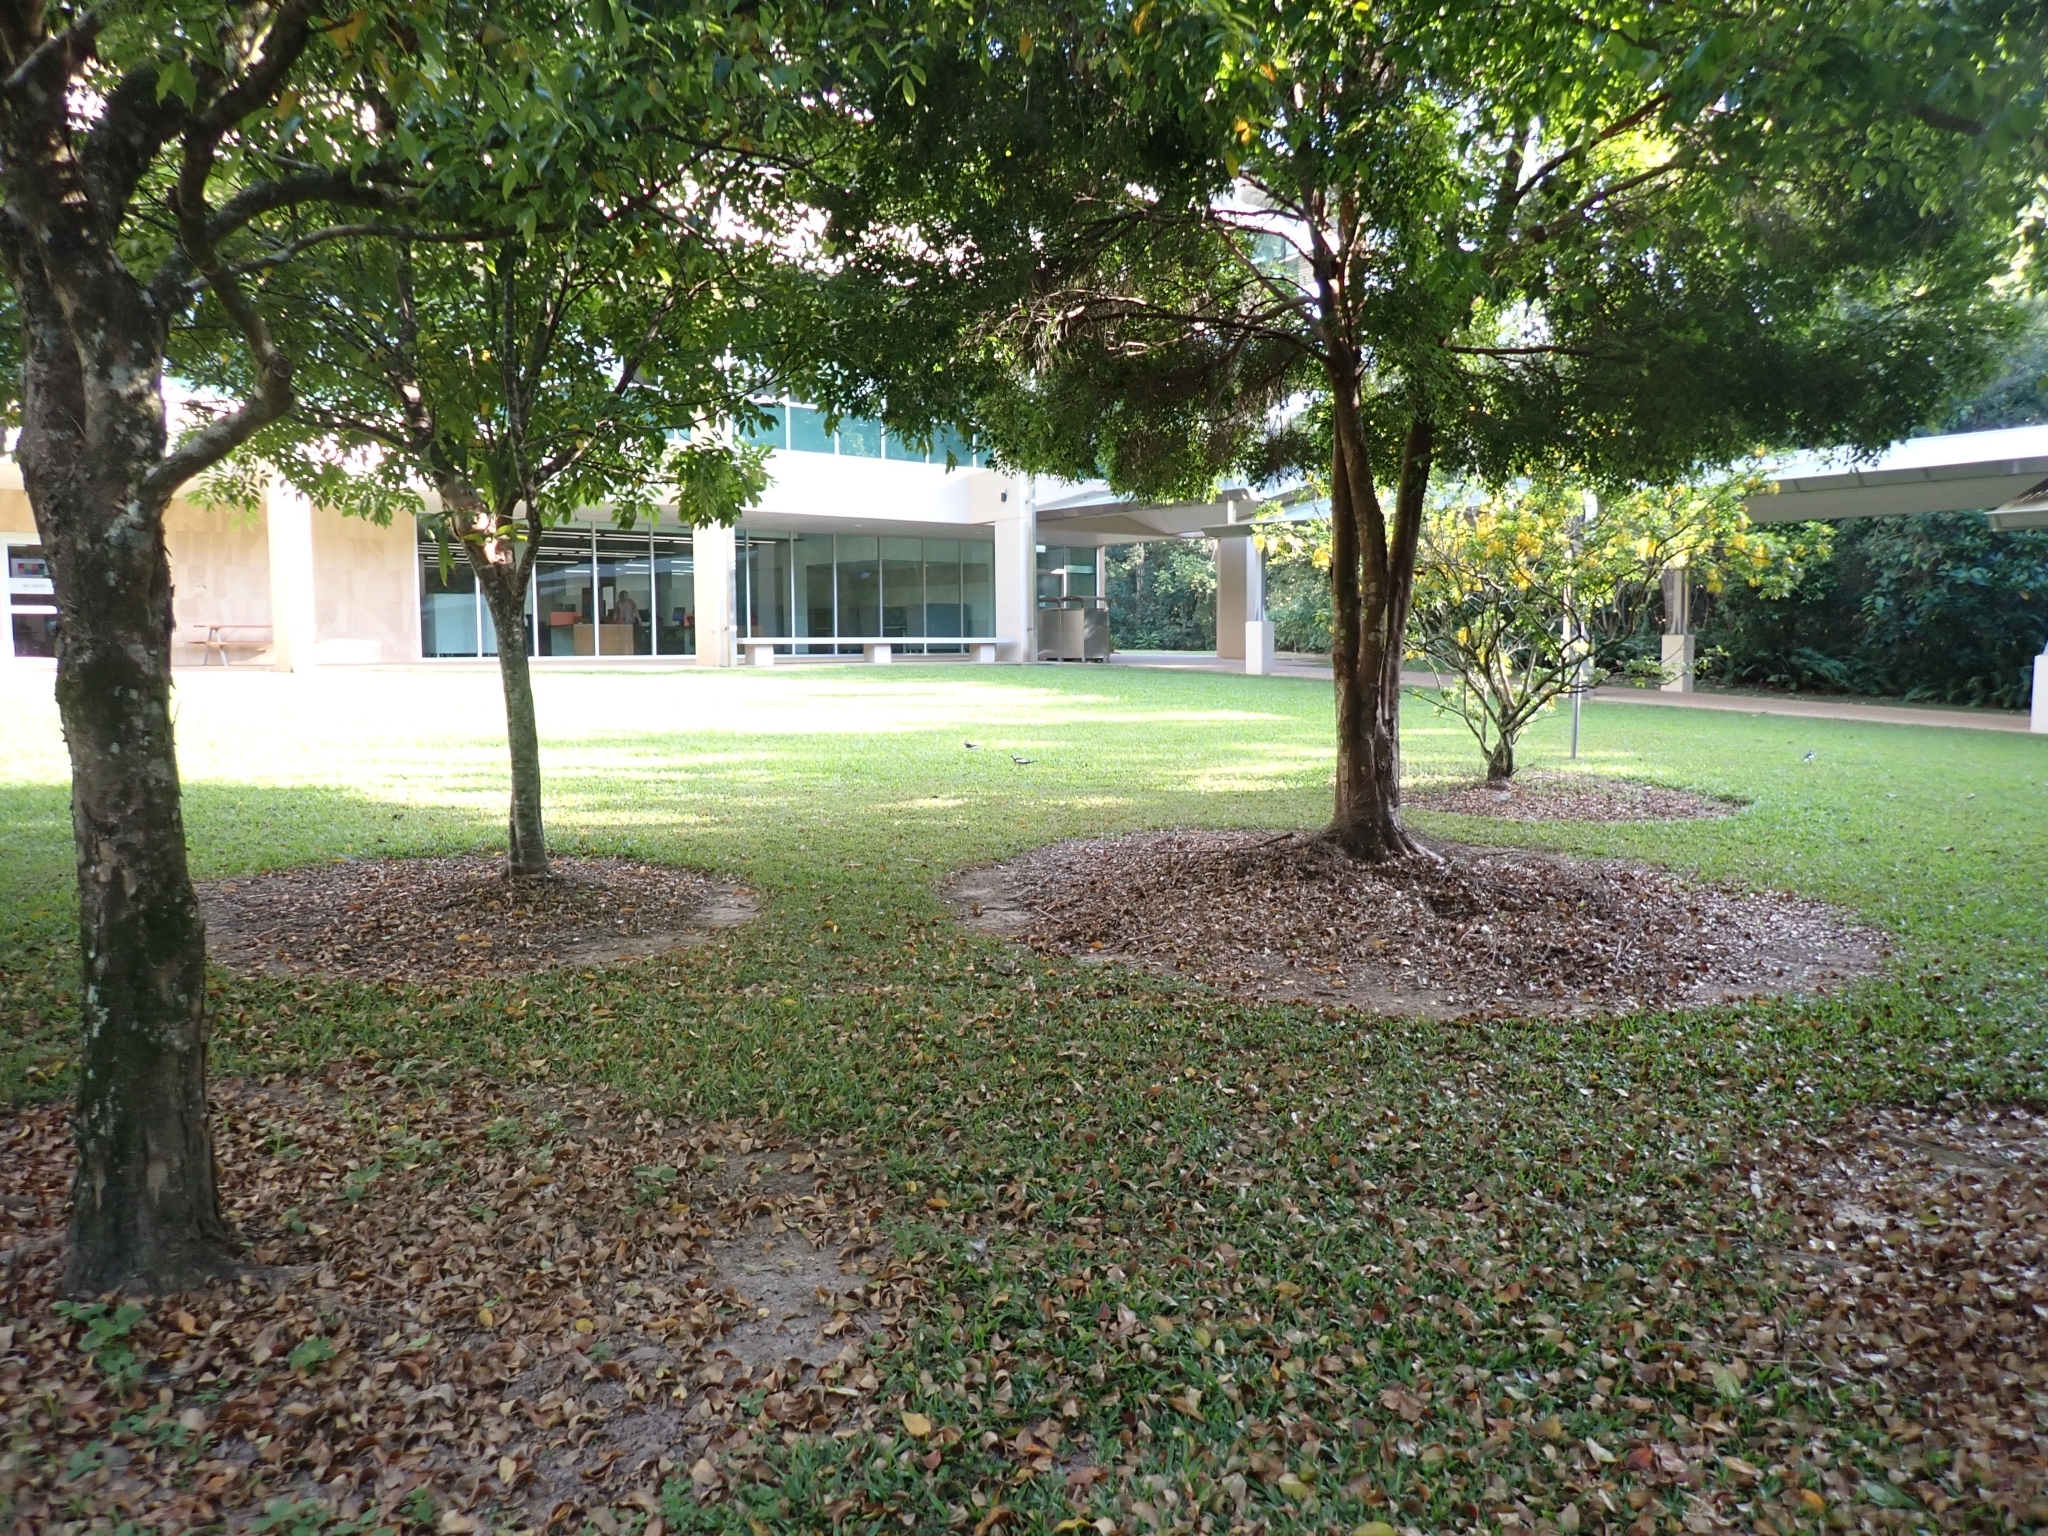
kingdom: Animalia
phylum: Chordata
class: Aves
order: Passeriformes
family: Monarchidae
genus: Grallina
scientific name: Grallina cyanoleuca
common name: Magpie-lark
